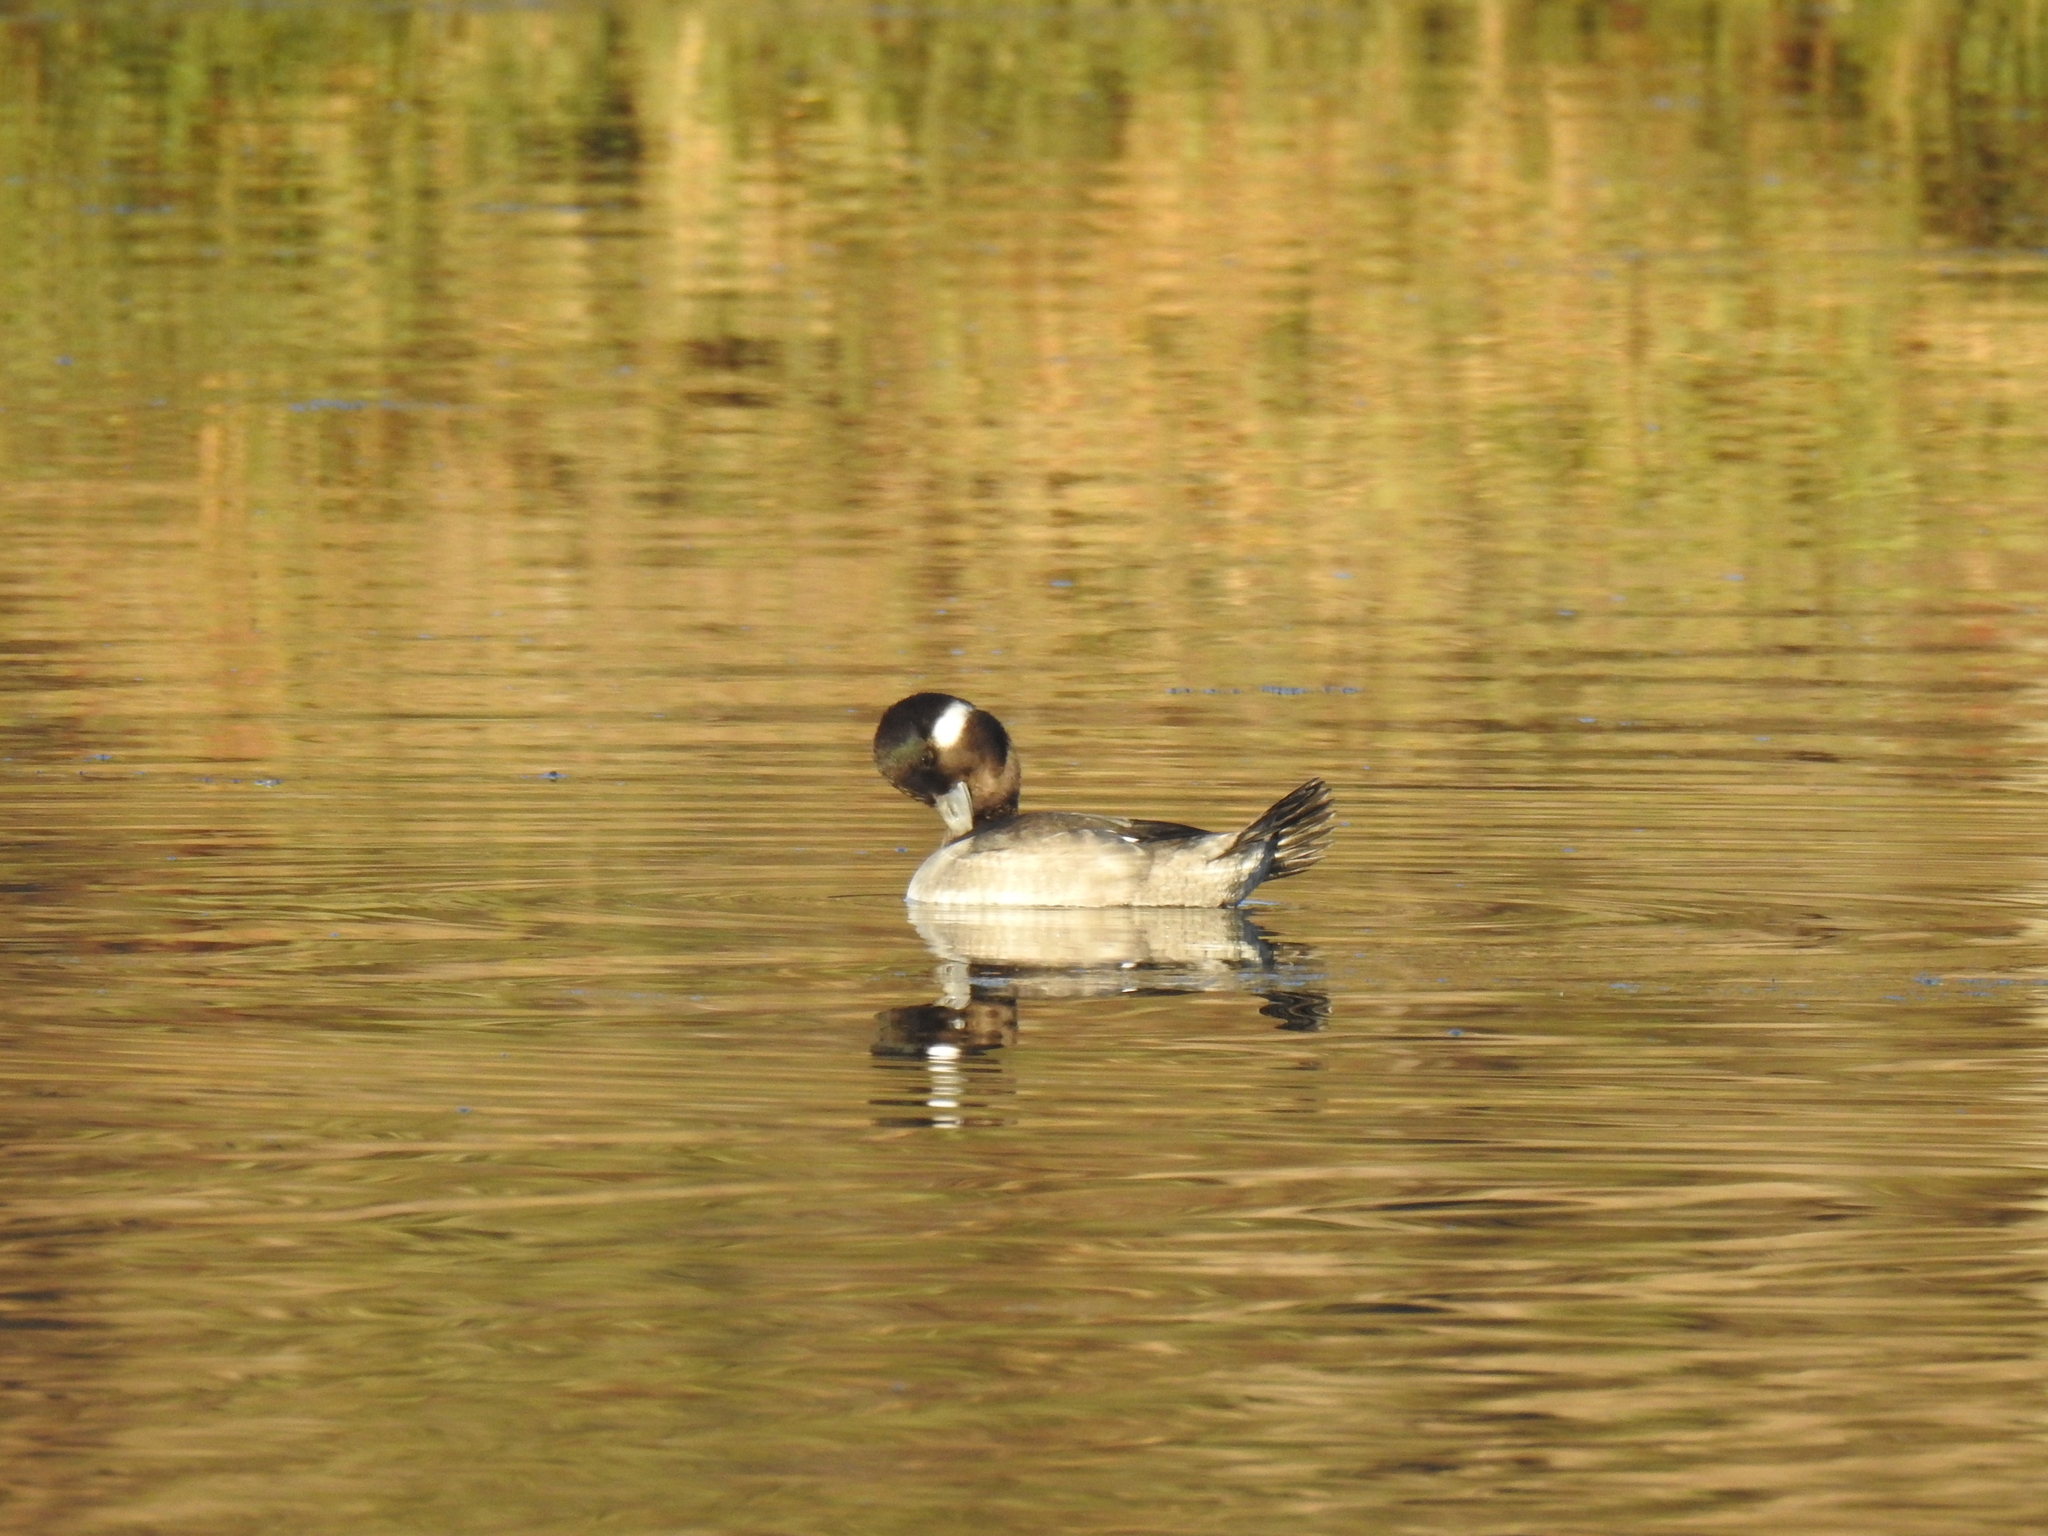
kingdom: Animalia
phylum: Chordata
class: Aves
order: Anseriformes
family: Anatidae
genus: Bucephala
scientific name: Bucephala albeola
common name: Bufflehead
